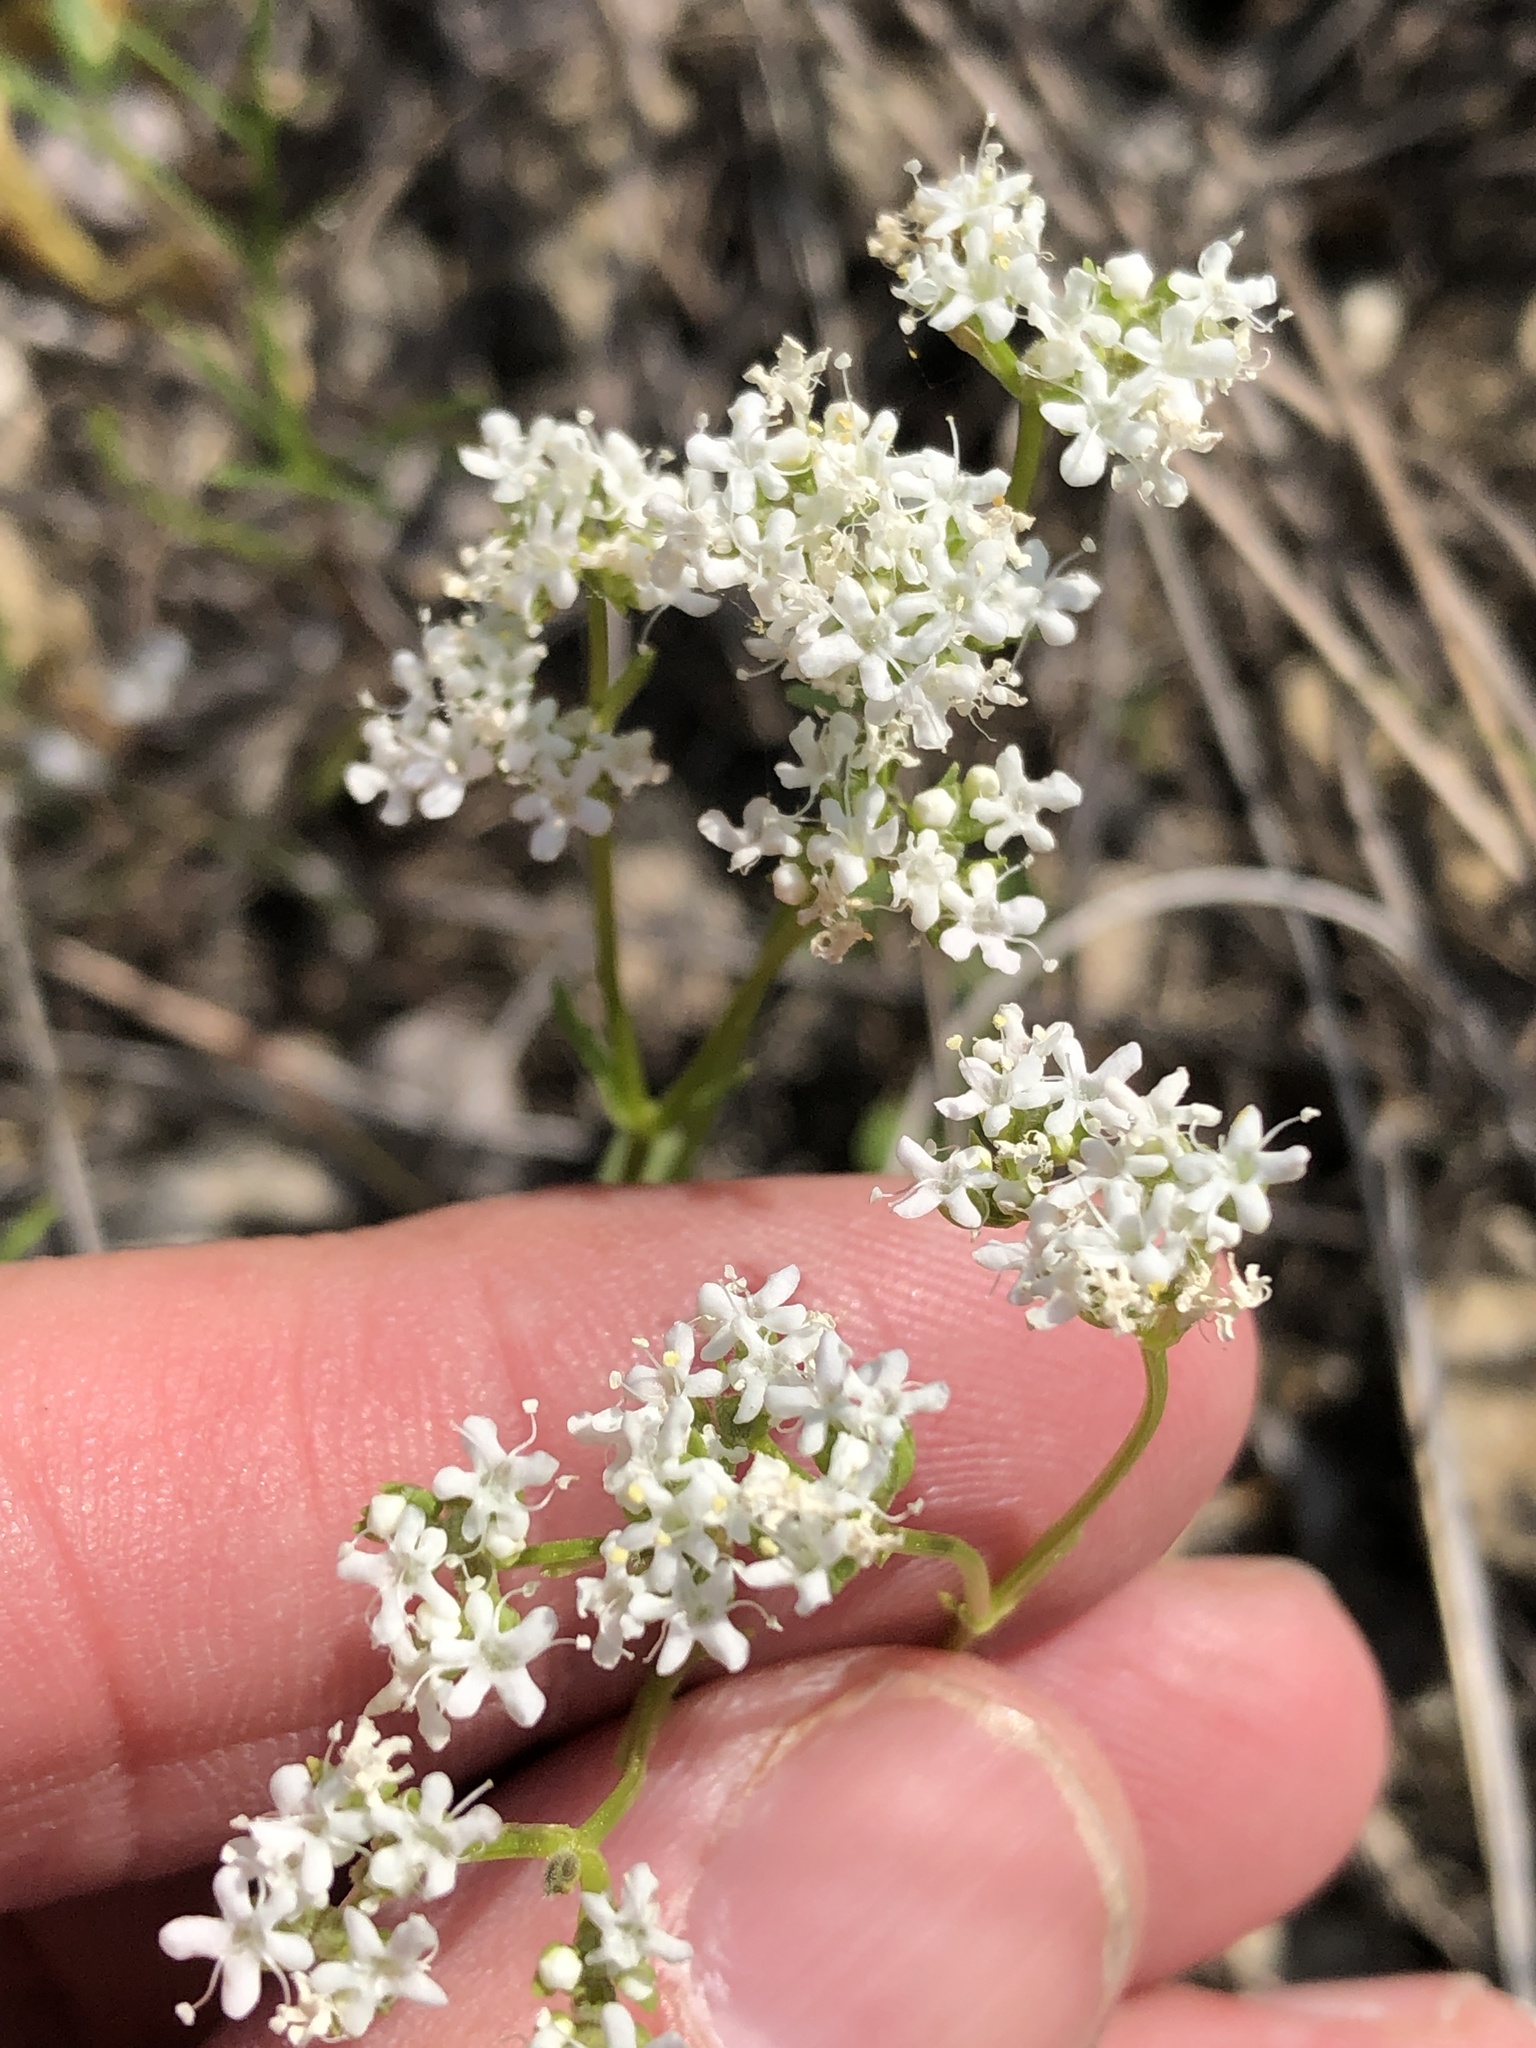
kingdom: Plantae
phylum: Tracheophyta
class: Magnoliopsida
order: Dipsacales
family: Caprifoliaceae
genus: Valerianella
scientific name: Valerianella amarella
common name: Hariy cornsalad
